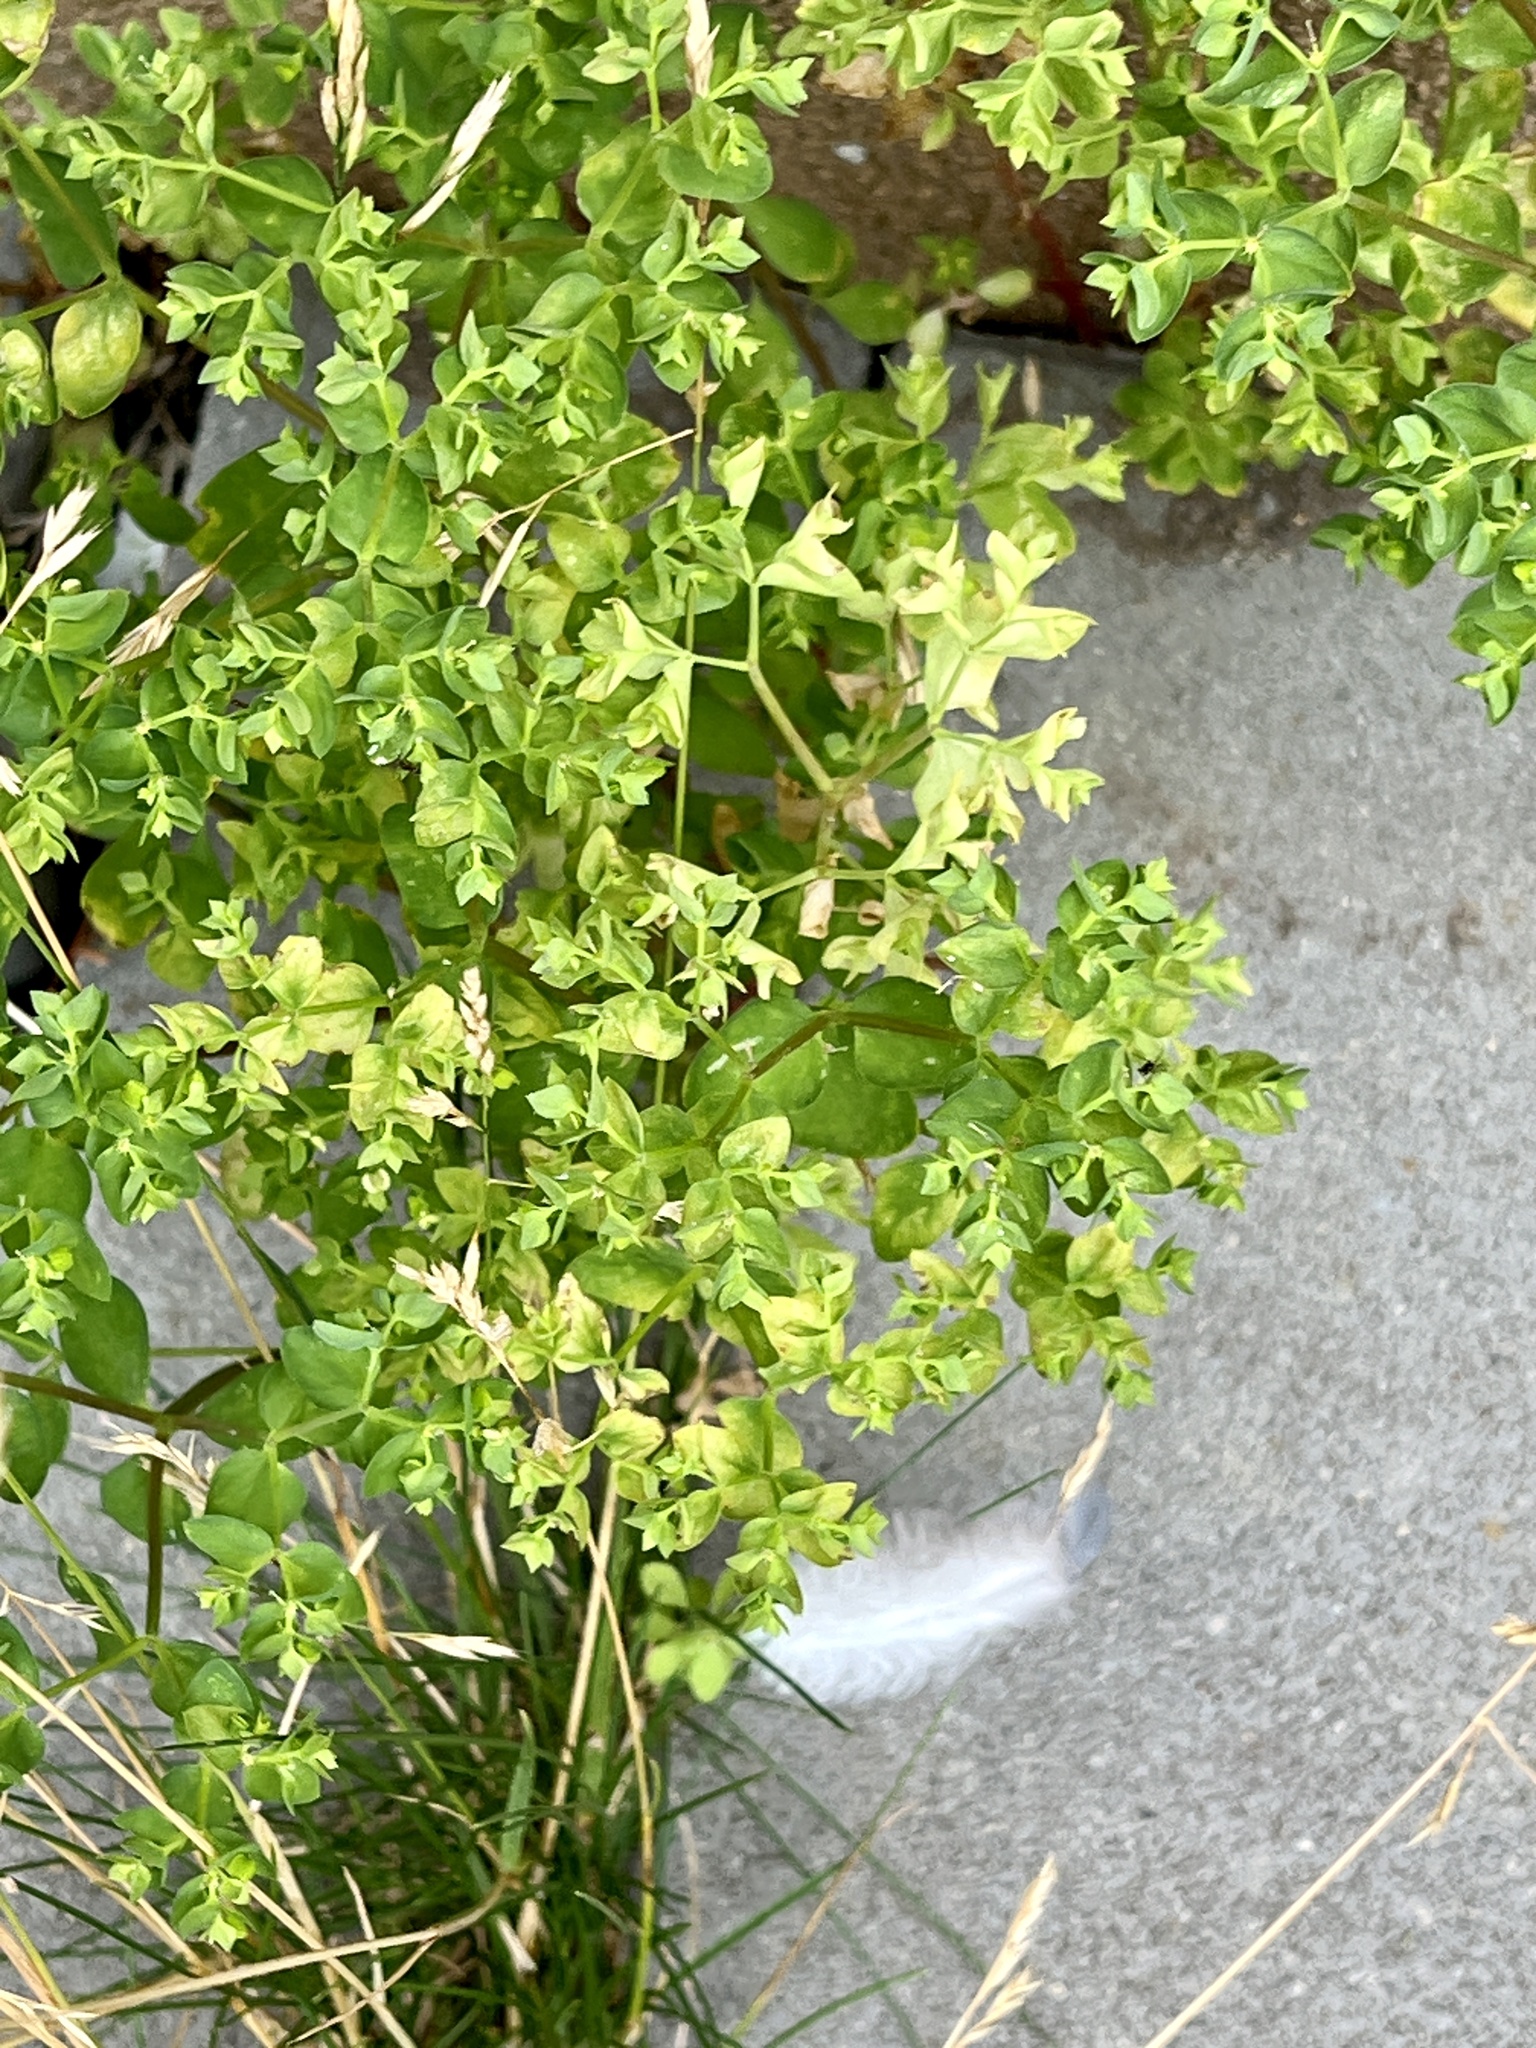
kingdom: Plantae
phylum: Tracheophyta
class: Magnoliopsida
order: Malpighiales
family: Euphorbiaceae
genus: Euphorbia
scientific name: Euphorbia peplus
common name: Petty spurge
